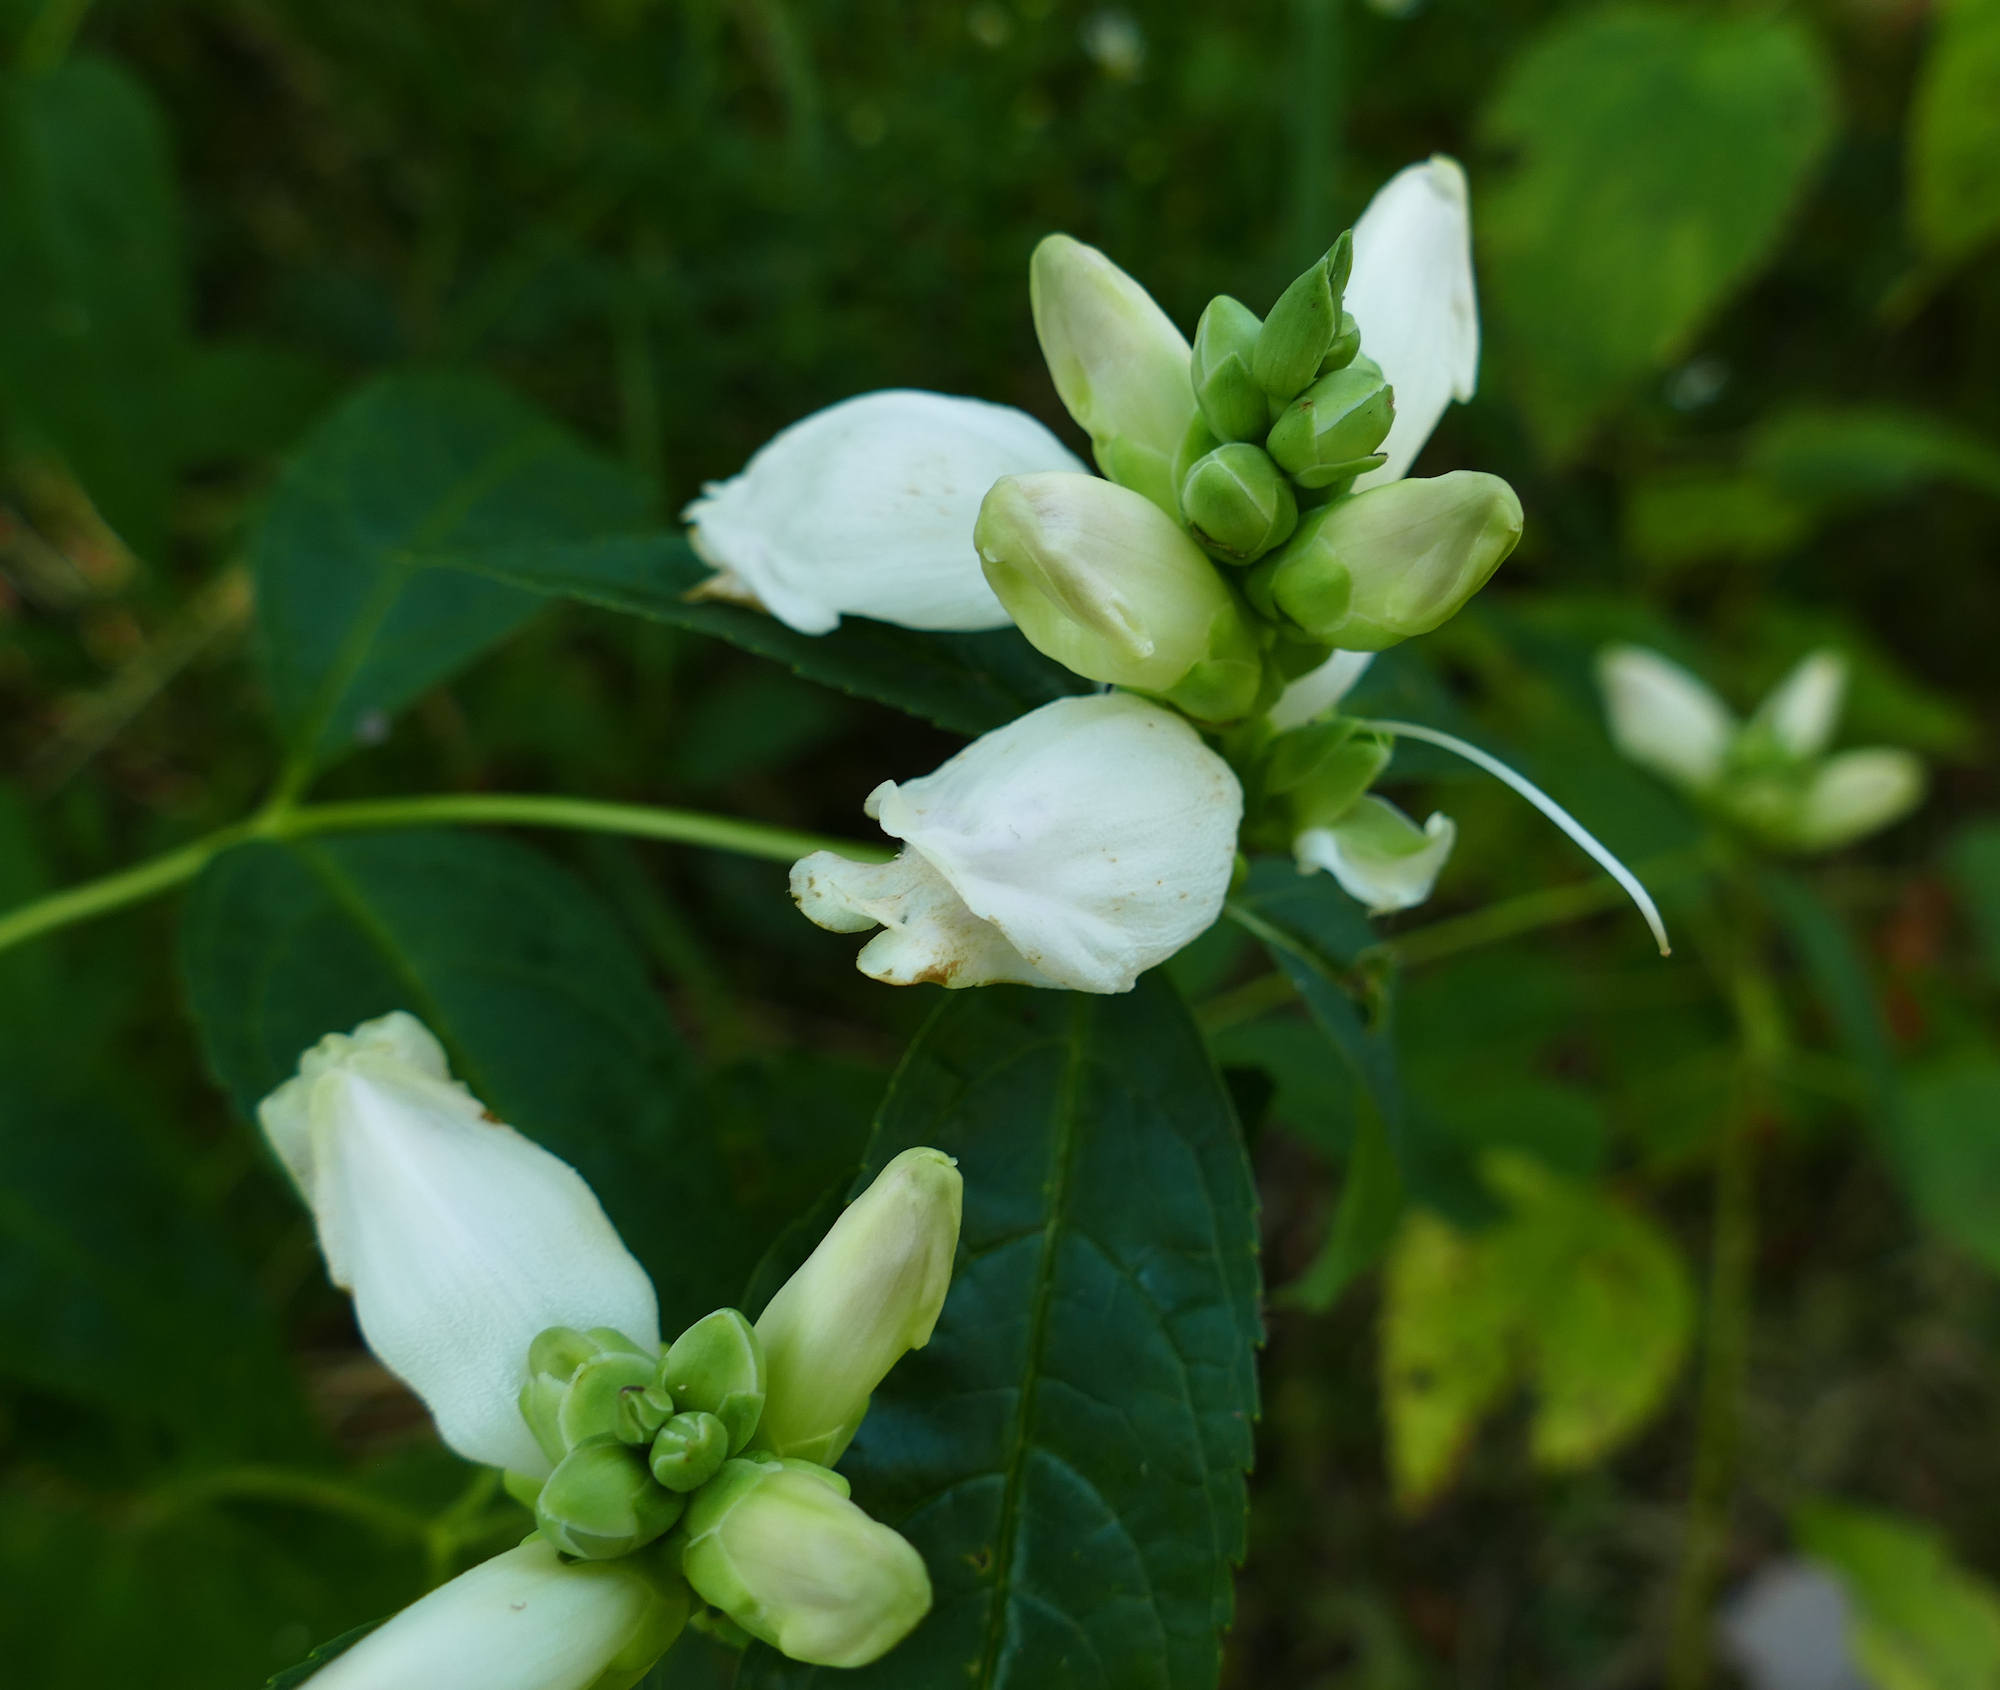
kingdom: Plantae
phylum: Tracheophyta
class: Magnoliopsida
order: Lamiales
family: Plantaginaceae
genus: Chelone
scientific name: Chelone glabra
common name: Snakehead
